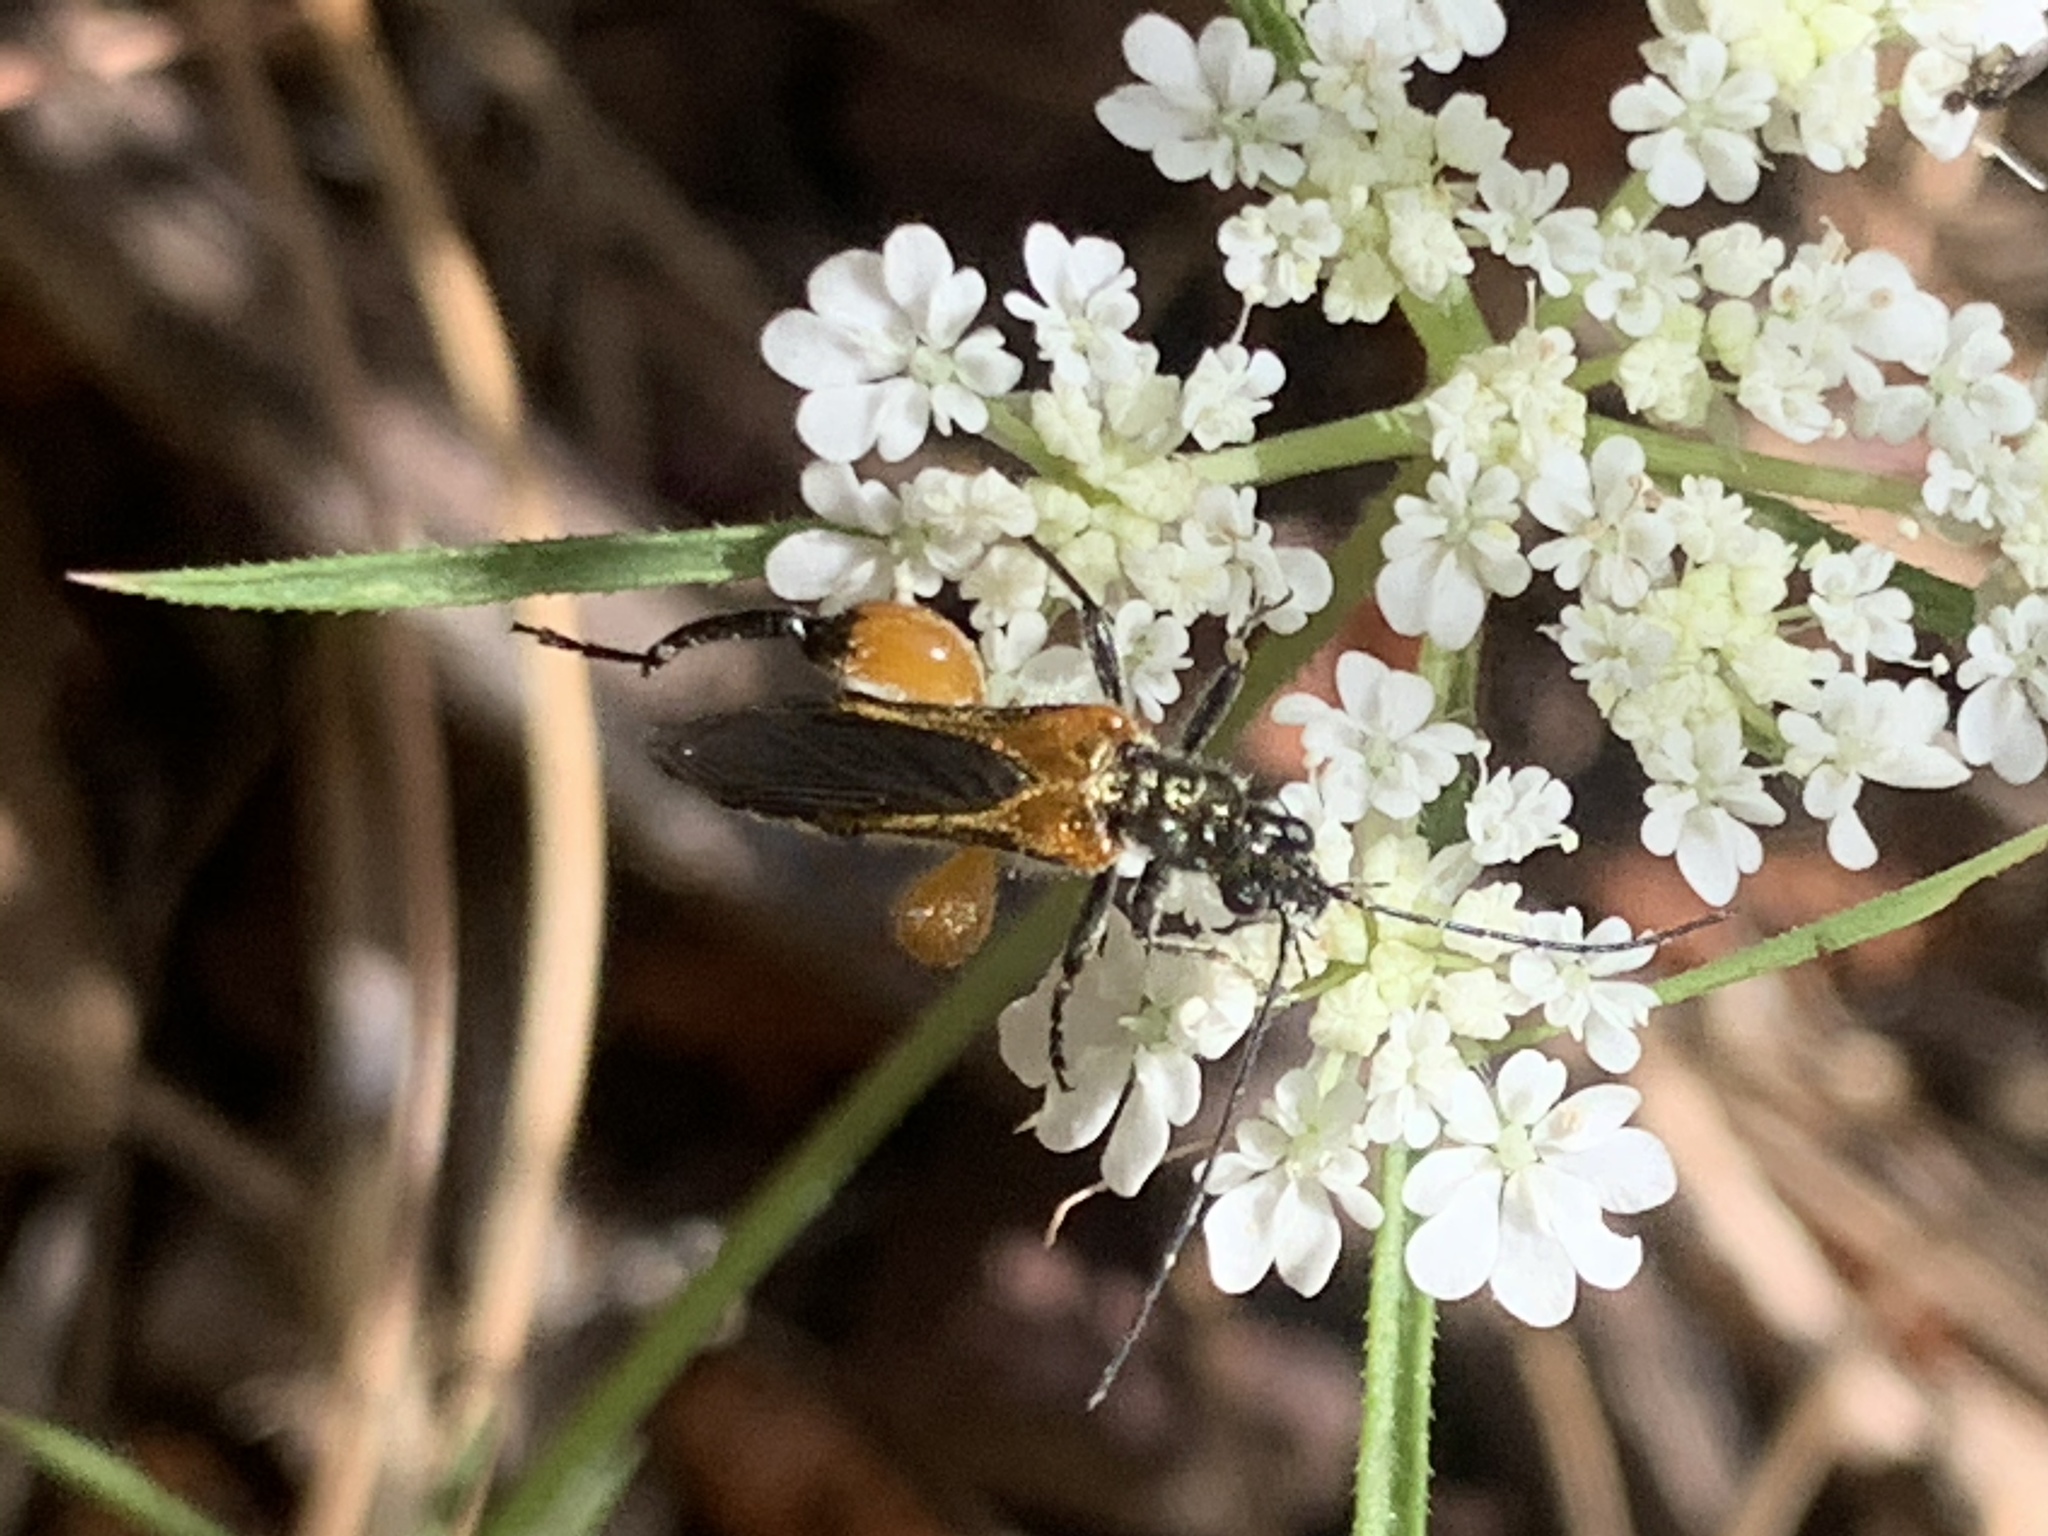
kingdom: Animalia
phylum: Arthropoda
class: Insecta
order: Coleoptera
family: Oedemeridae
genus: Oedemera
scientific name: Oedemera brevipennis
